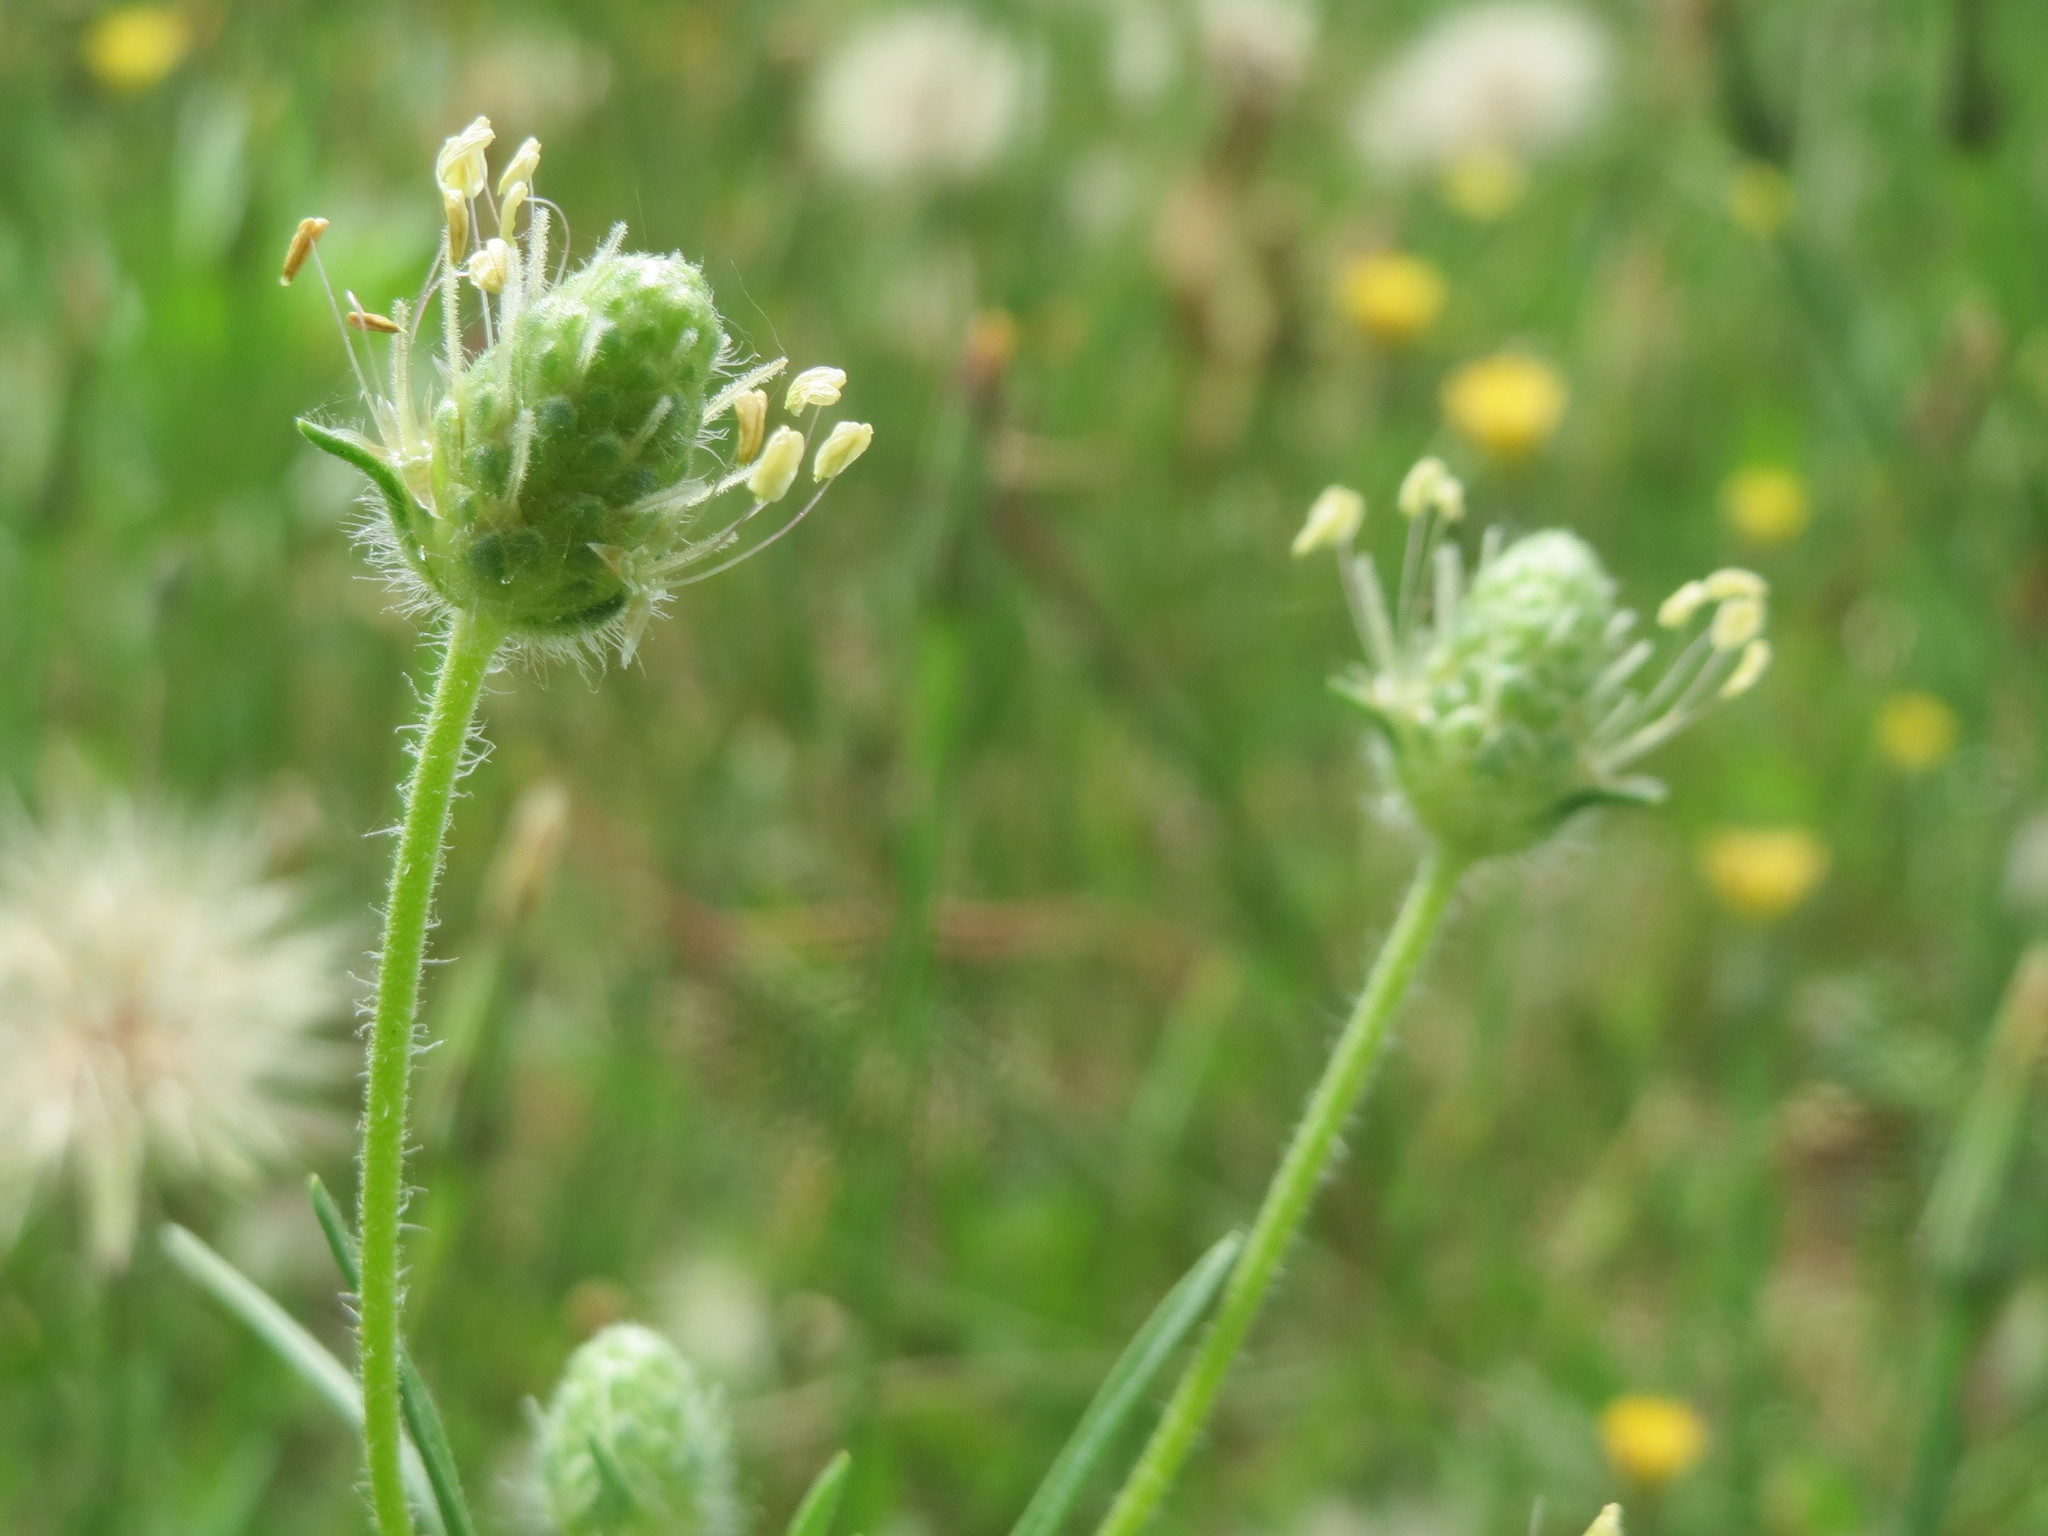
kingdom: Plantae
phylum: Tracheophyta
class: Magnoliopsida
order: Lamiales
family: Plantaginaceae
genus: Plantago
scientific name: Plantago arenaria
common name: Branched plantain
